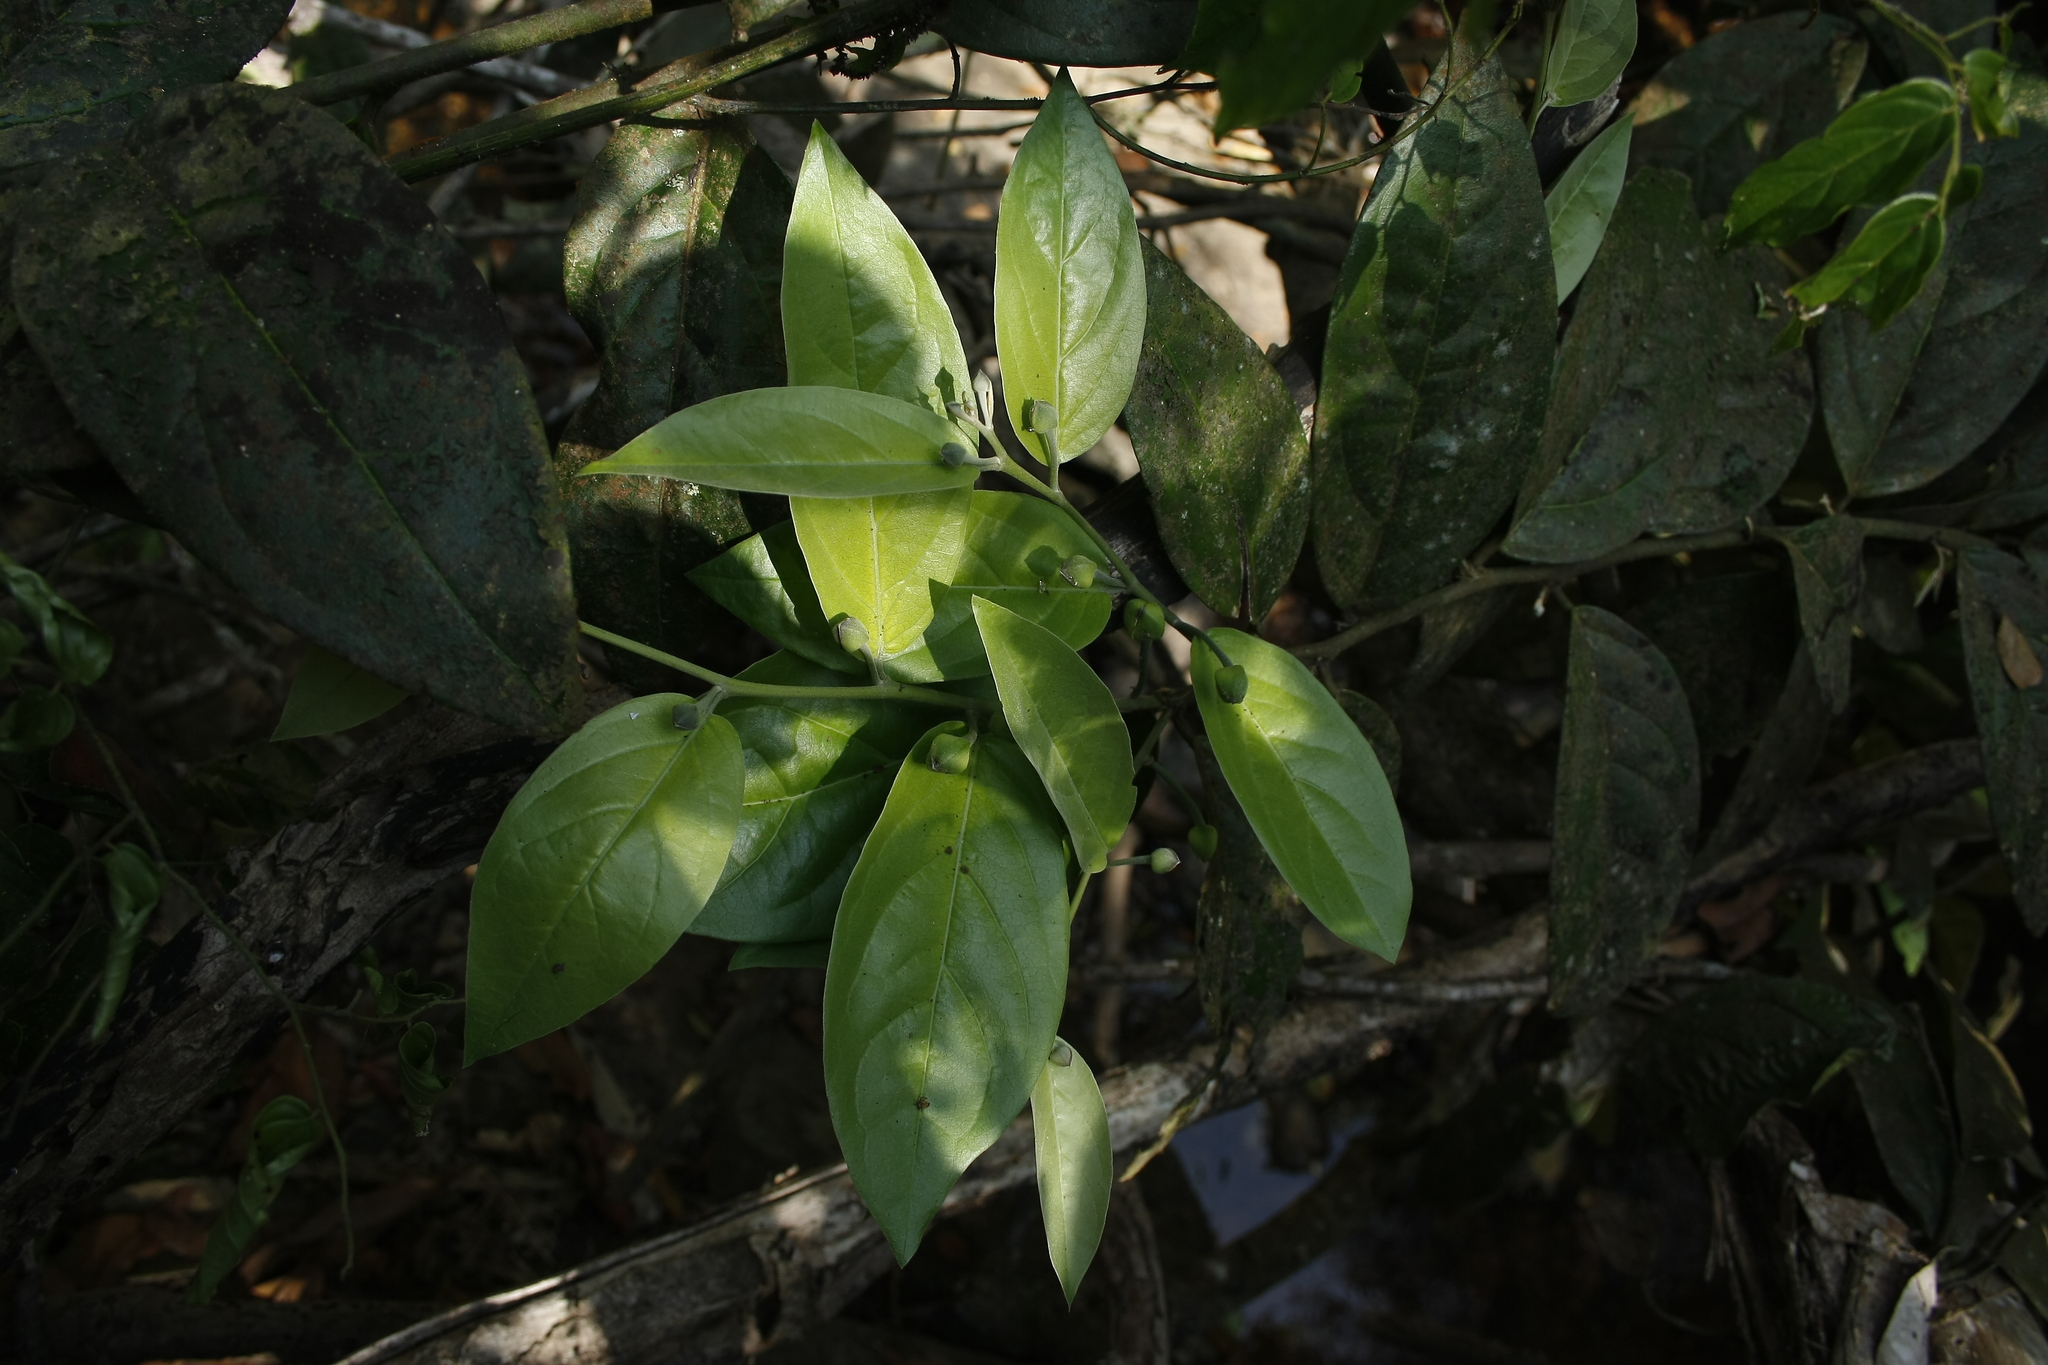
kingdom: Plantae
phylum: Tracheophyta
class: Magnoliopsida
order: Brassicales
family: Capparaceae
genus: Capparis
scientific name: Capparis rheedei
